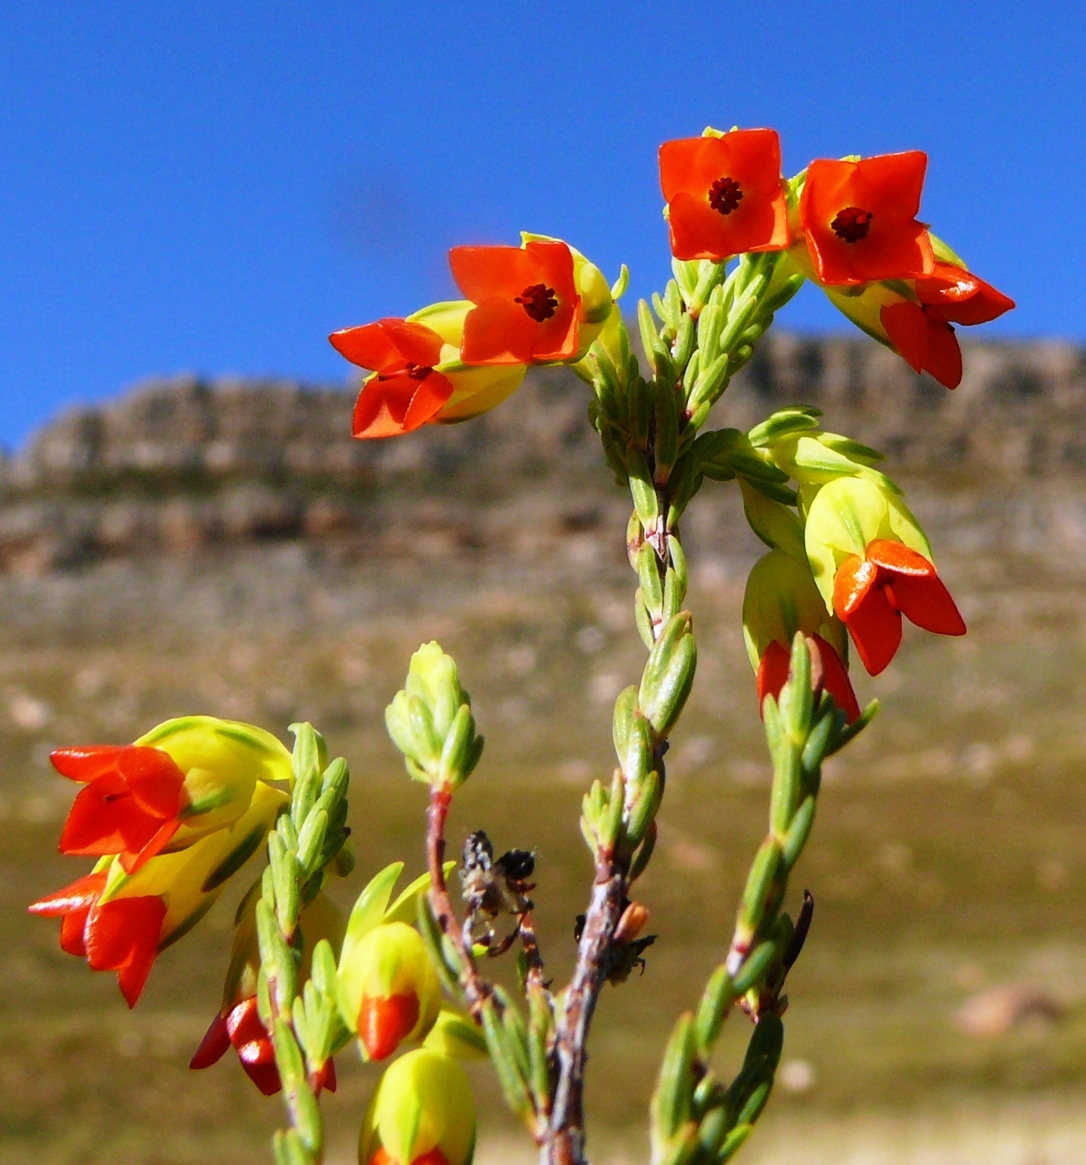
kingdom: Plantae
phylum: Tracheophyta
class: Magnoliopsida
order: Ericales
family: Ericaceae
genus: Erica
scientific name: Erica thunbergii
